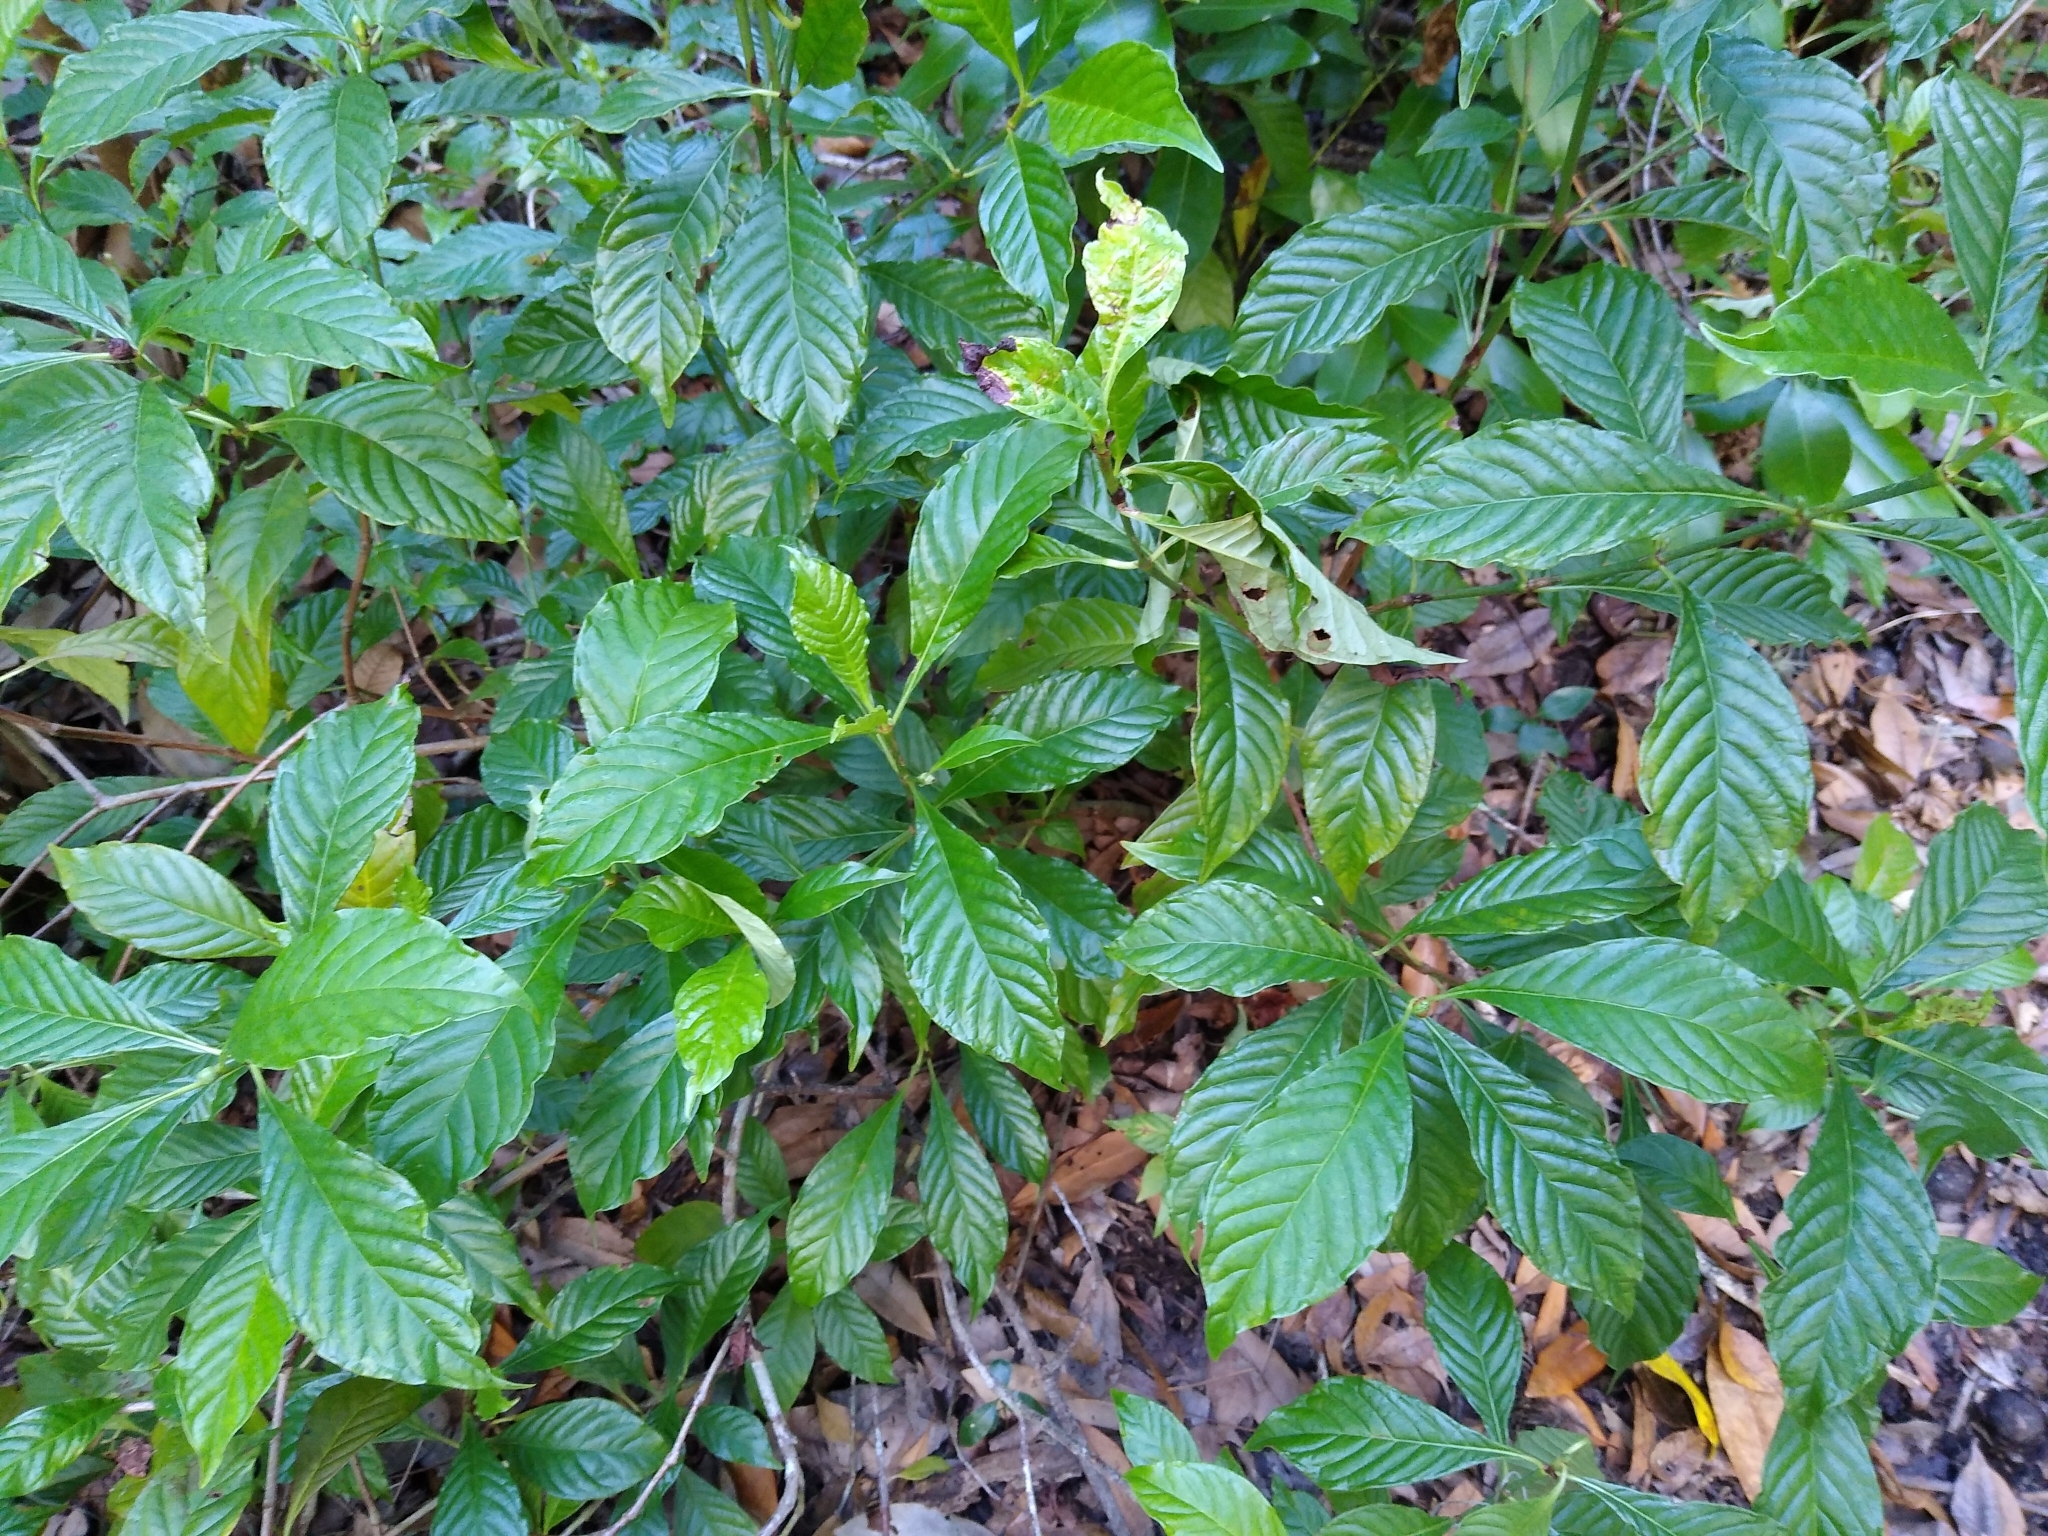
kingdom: Plantae
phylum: Tracheophyta
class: Magnoliopsida
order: Gentianales
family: Rubiaceae
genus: Psychotria
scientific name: Psychotria nervosa
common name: Bastard cankerberry
